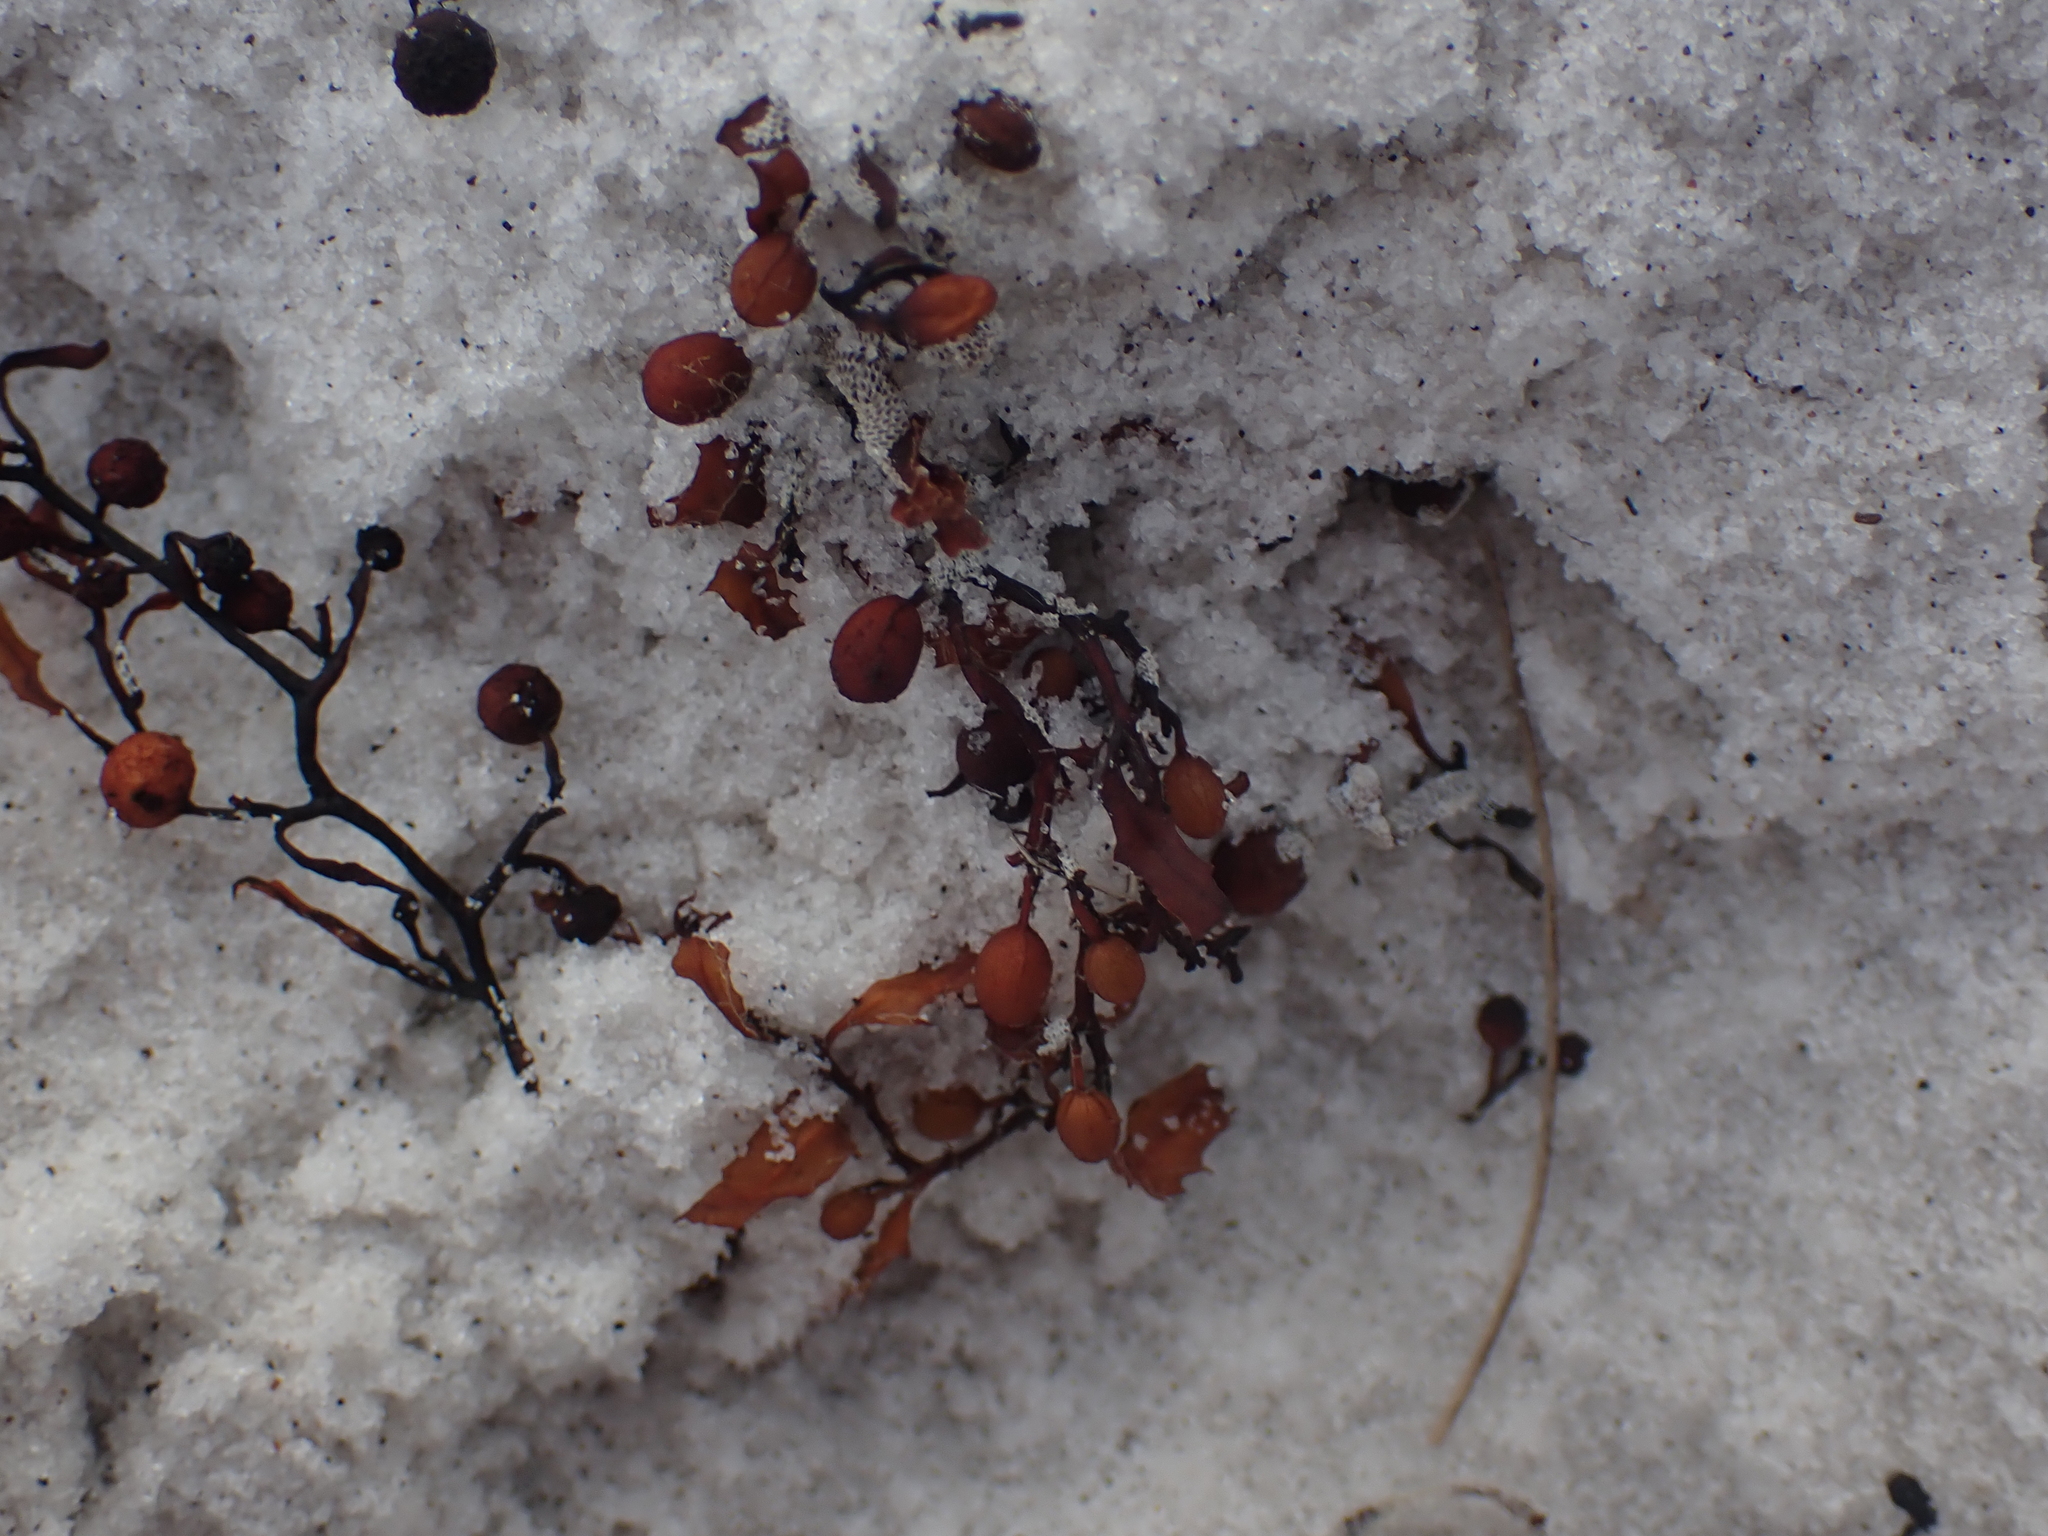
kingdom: Chromista
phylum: Ochrophyta
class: Phaeophyceae
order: Fucales
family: Sargassaceae
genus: Sargassum
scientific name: Sargassum fluitans
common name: Sargassum seaweed
